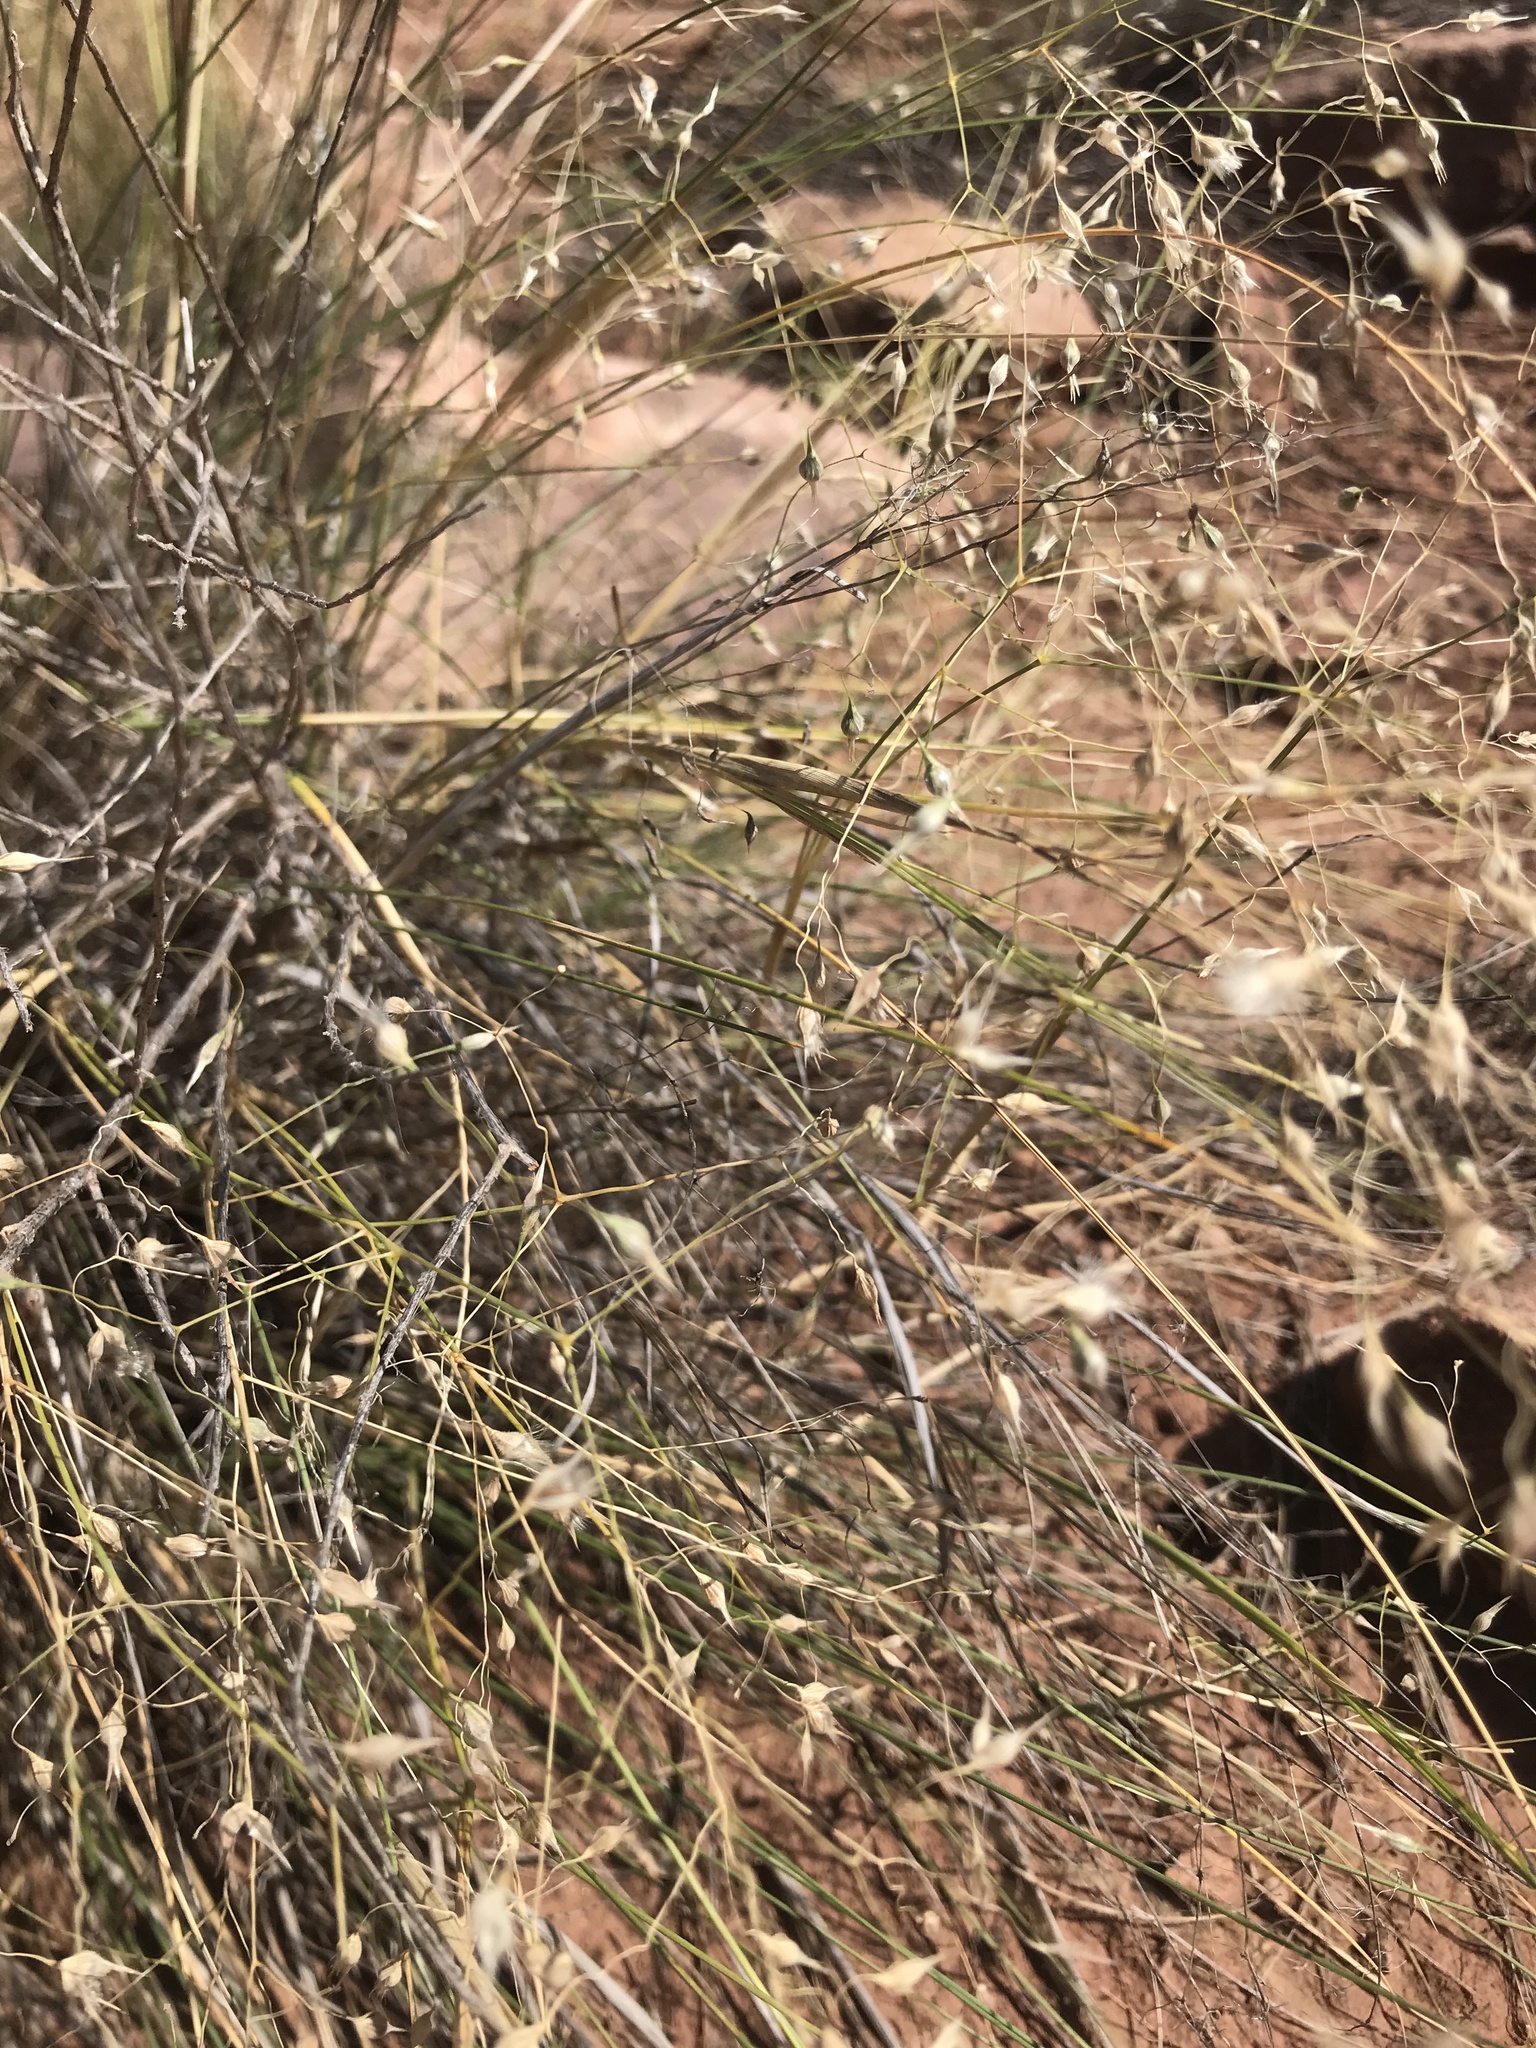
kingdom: Plantae
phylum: Tracheophyta
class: Liliopsida
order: Poales
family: Poaceae
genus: Eriocoma
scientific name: Eriocoma hymenoides
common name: Indian mountain ricegrass
